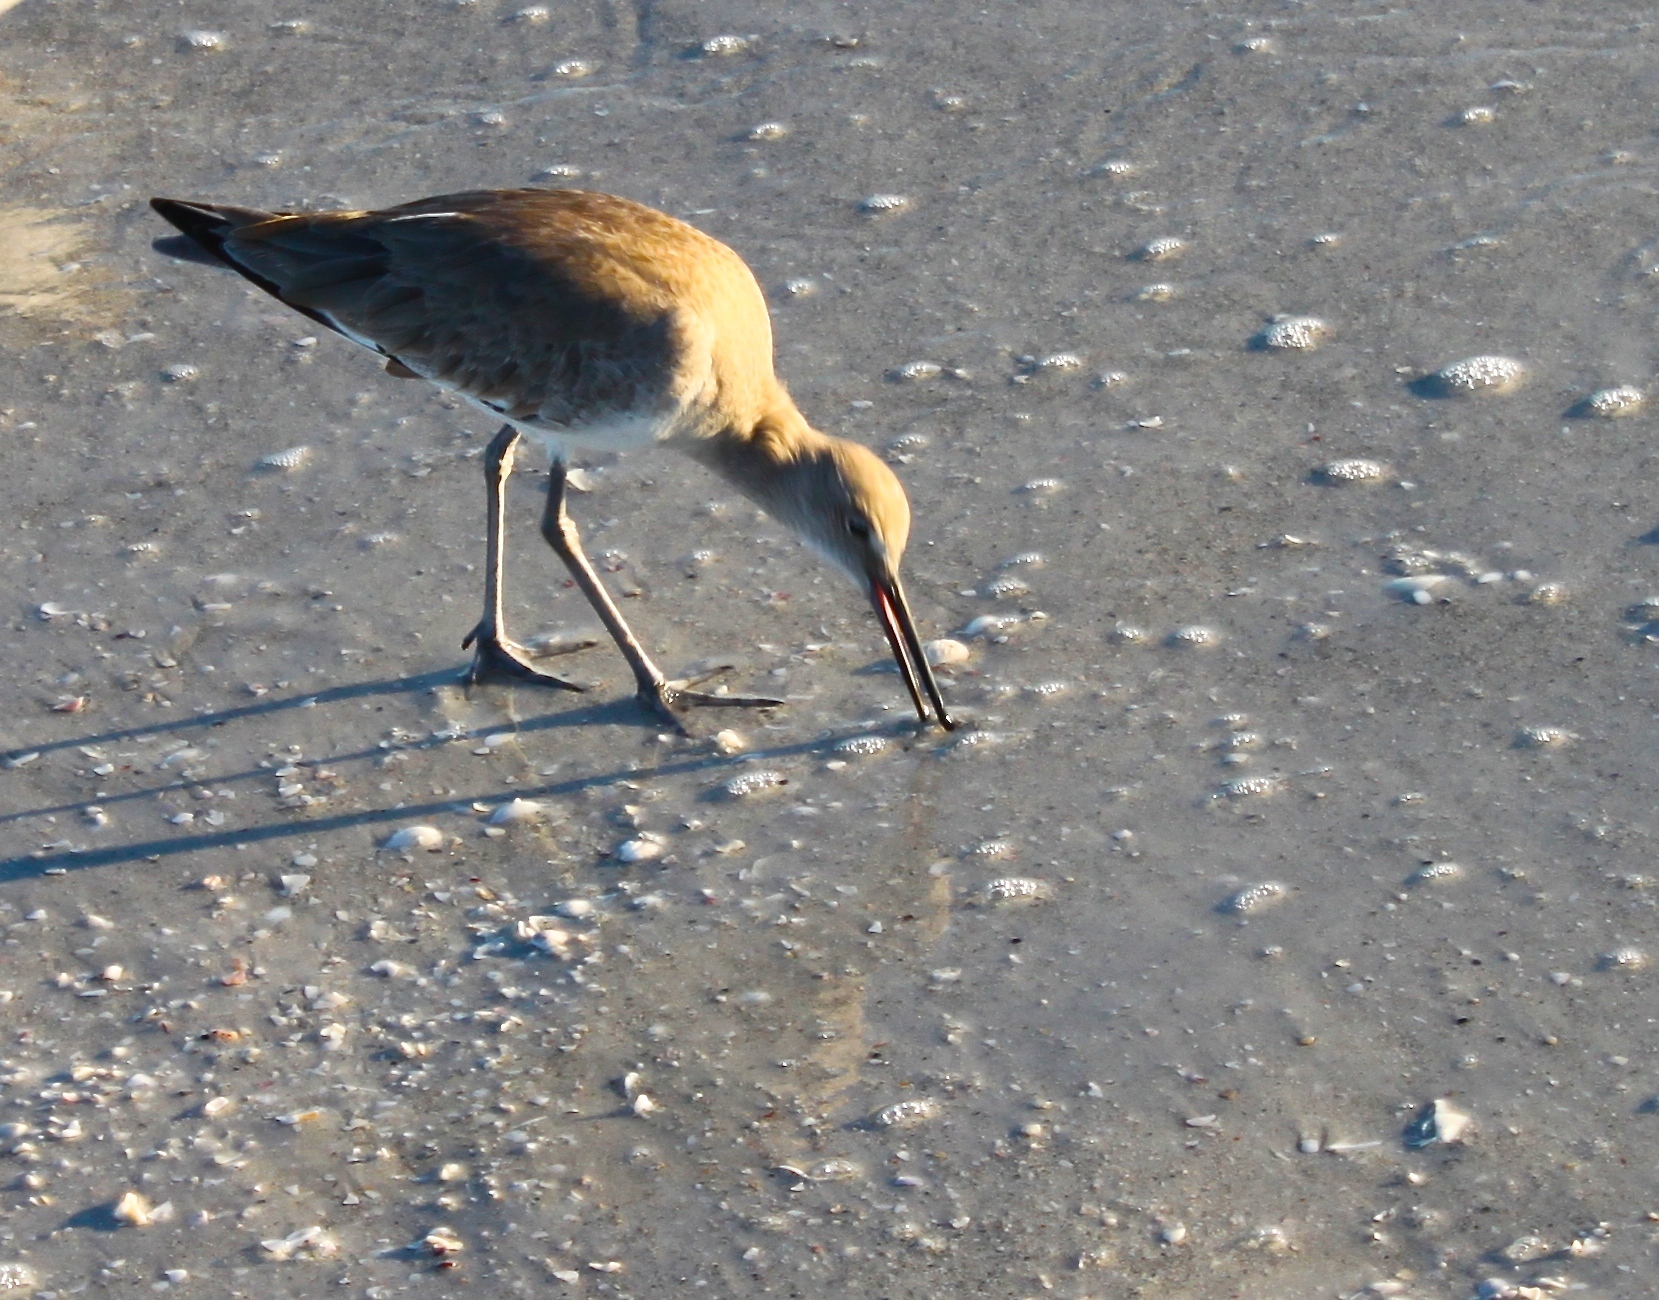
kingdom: Animalia
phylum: Chordata
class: Aves
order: Charadriiformes
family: Scolopacidae
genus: Tringa
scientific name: Tringa semipalmata
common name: Willet
